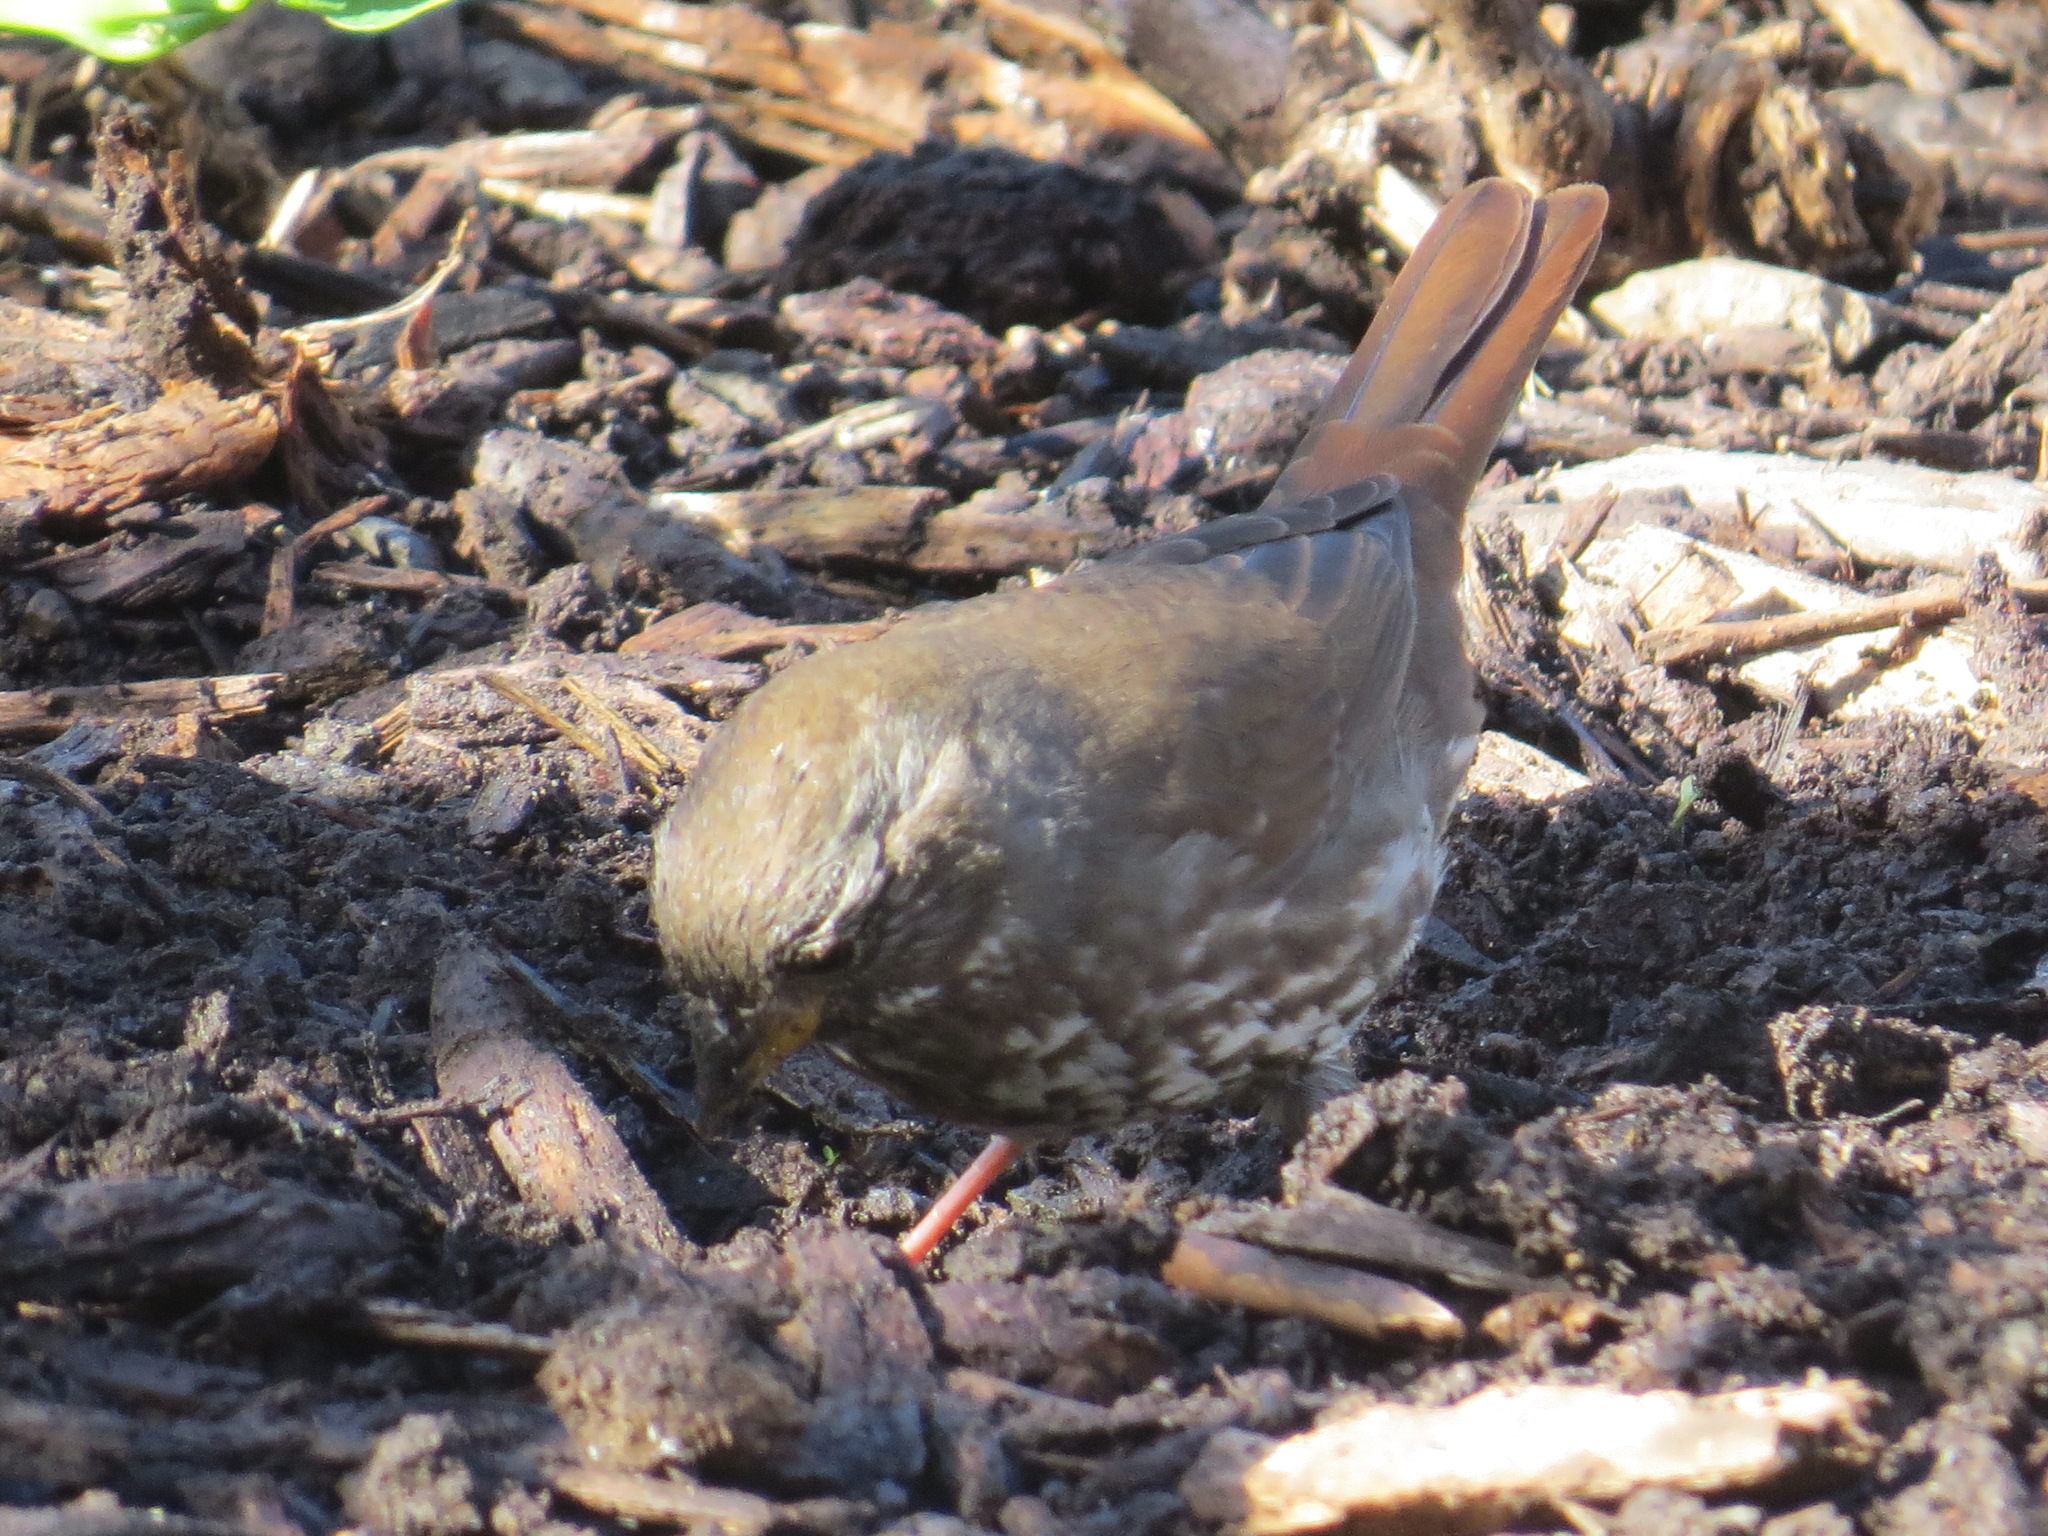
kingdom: Animalia
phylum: Chordata
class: Aves
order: Passeriformes
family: Passerellidae
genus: Passerella
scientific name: Passerella iliaca
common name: Fox sparrow
